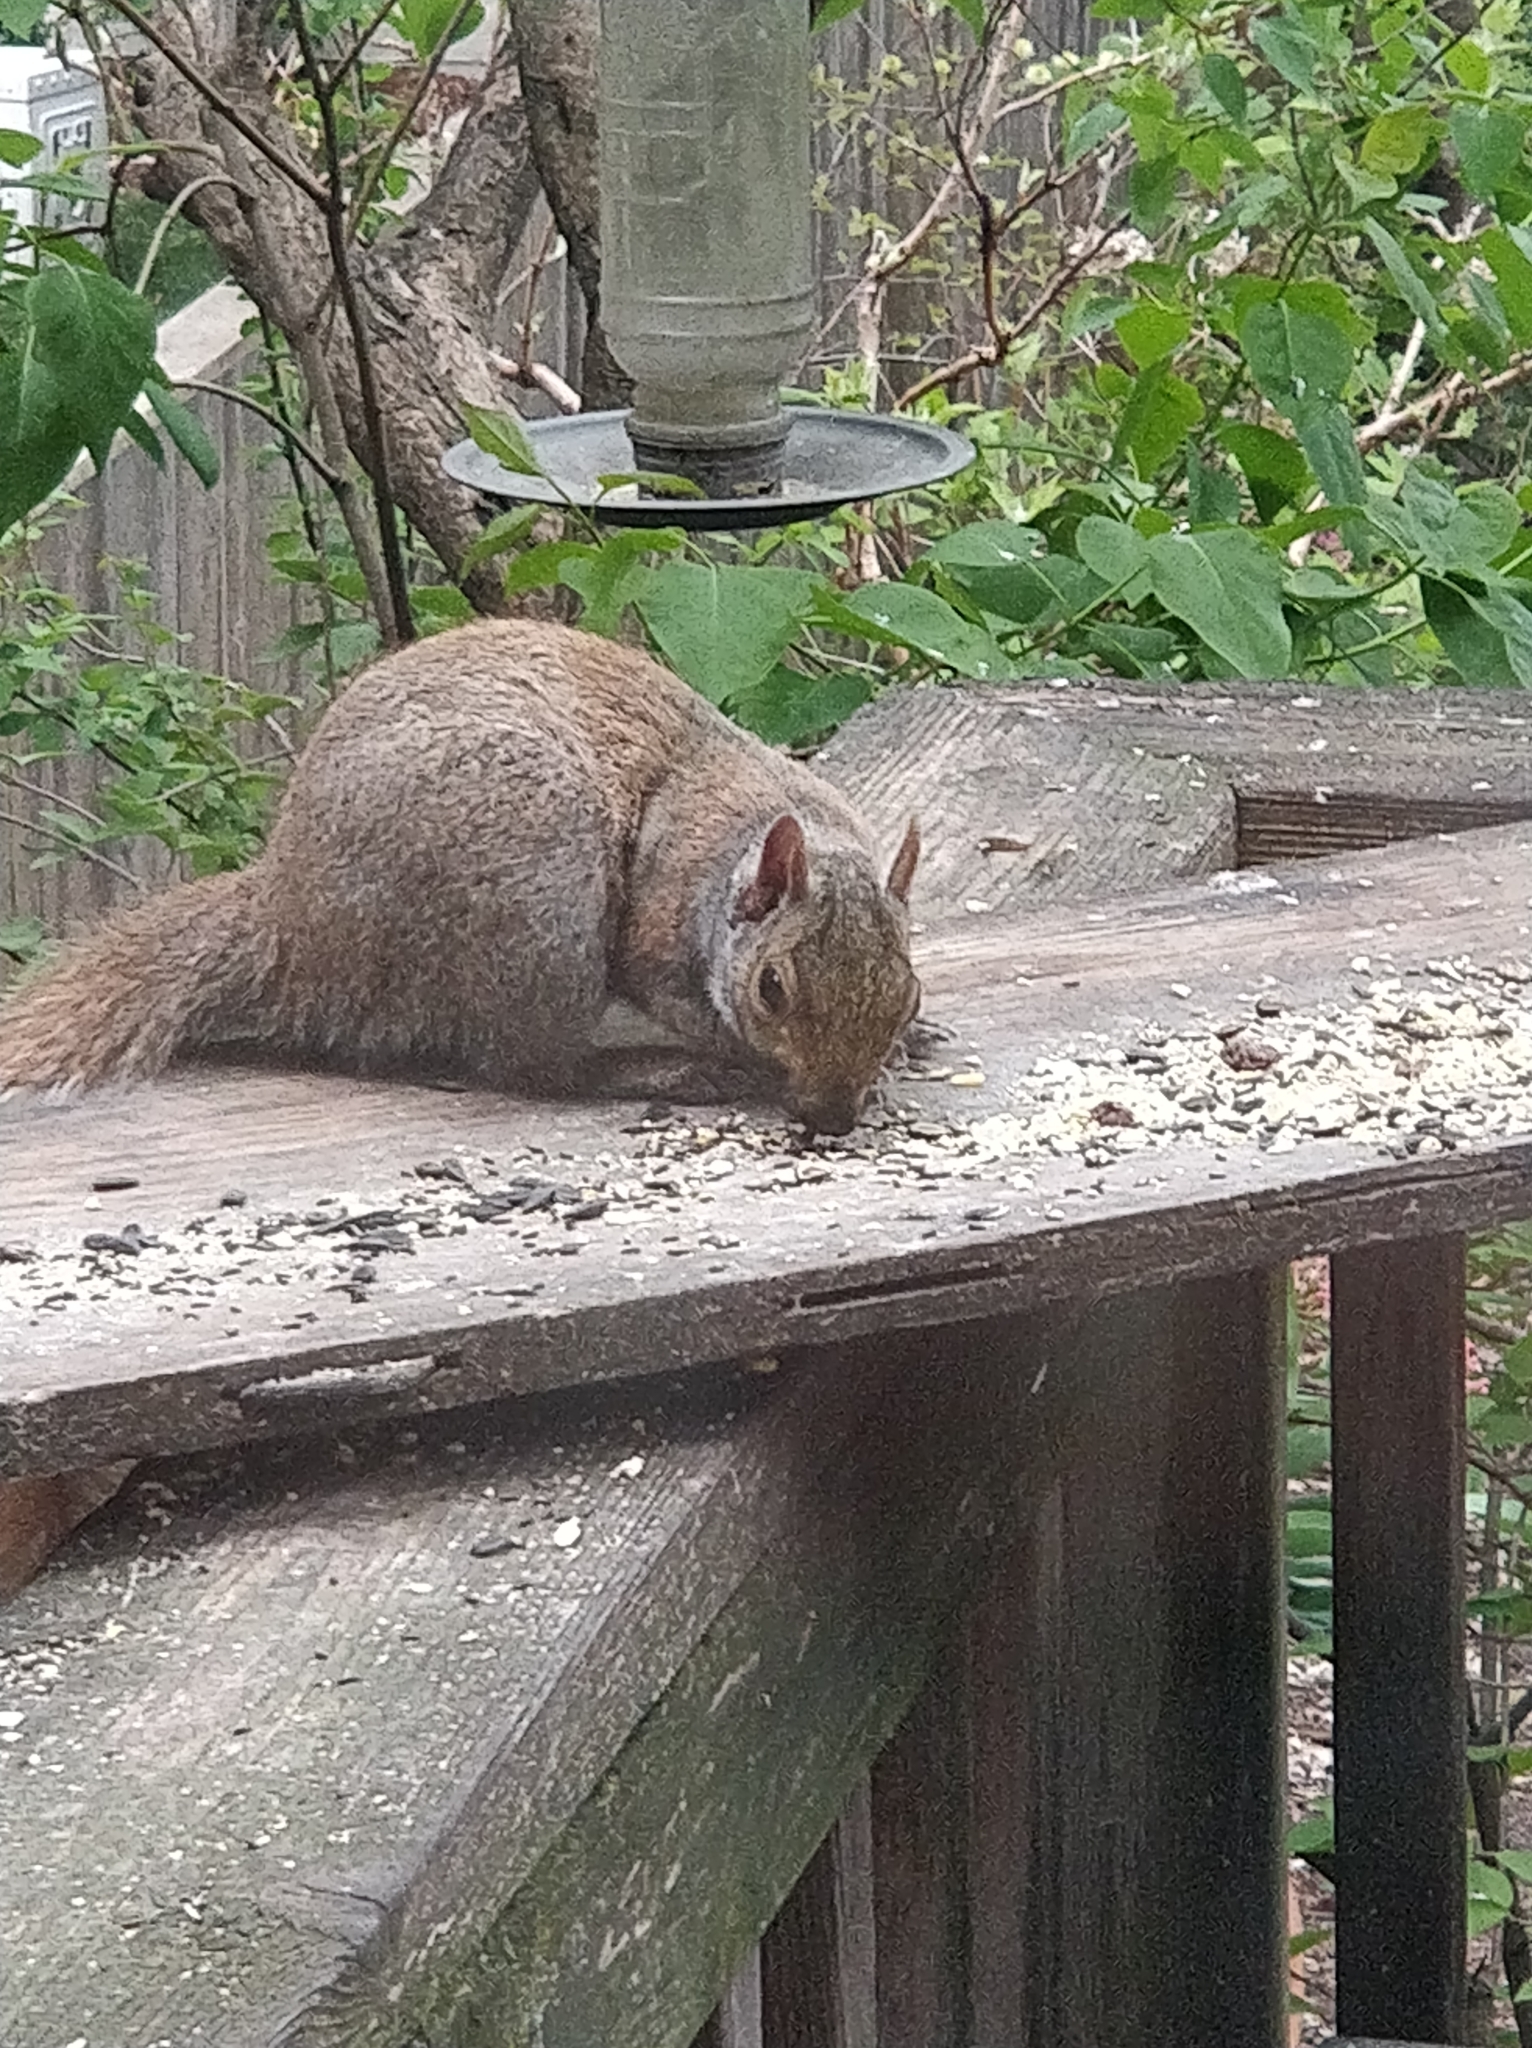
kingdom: Animalia
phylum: Chordata
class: Mammalia
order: Rodentia
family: Sciuridae
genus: Sciurus
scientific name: Sciurus carolinensis
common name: Eastern gray squirrel
